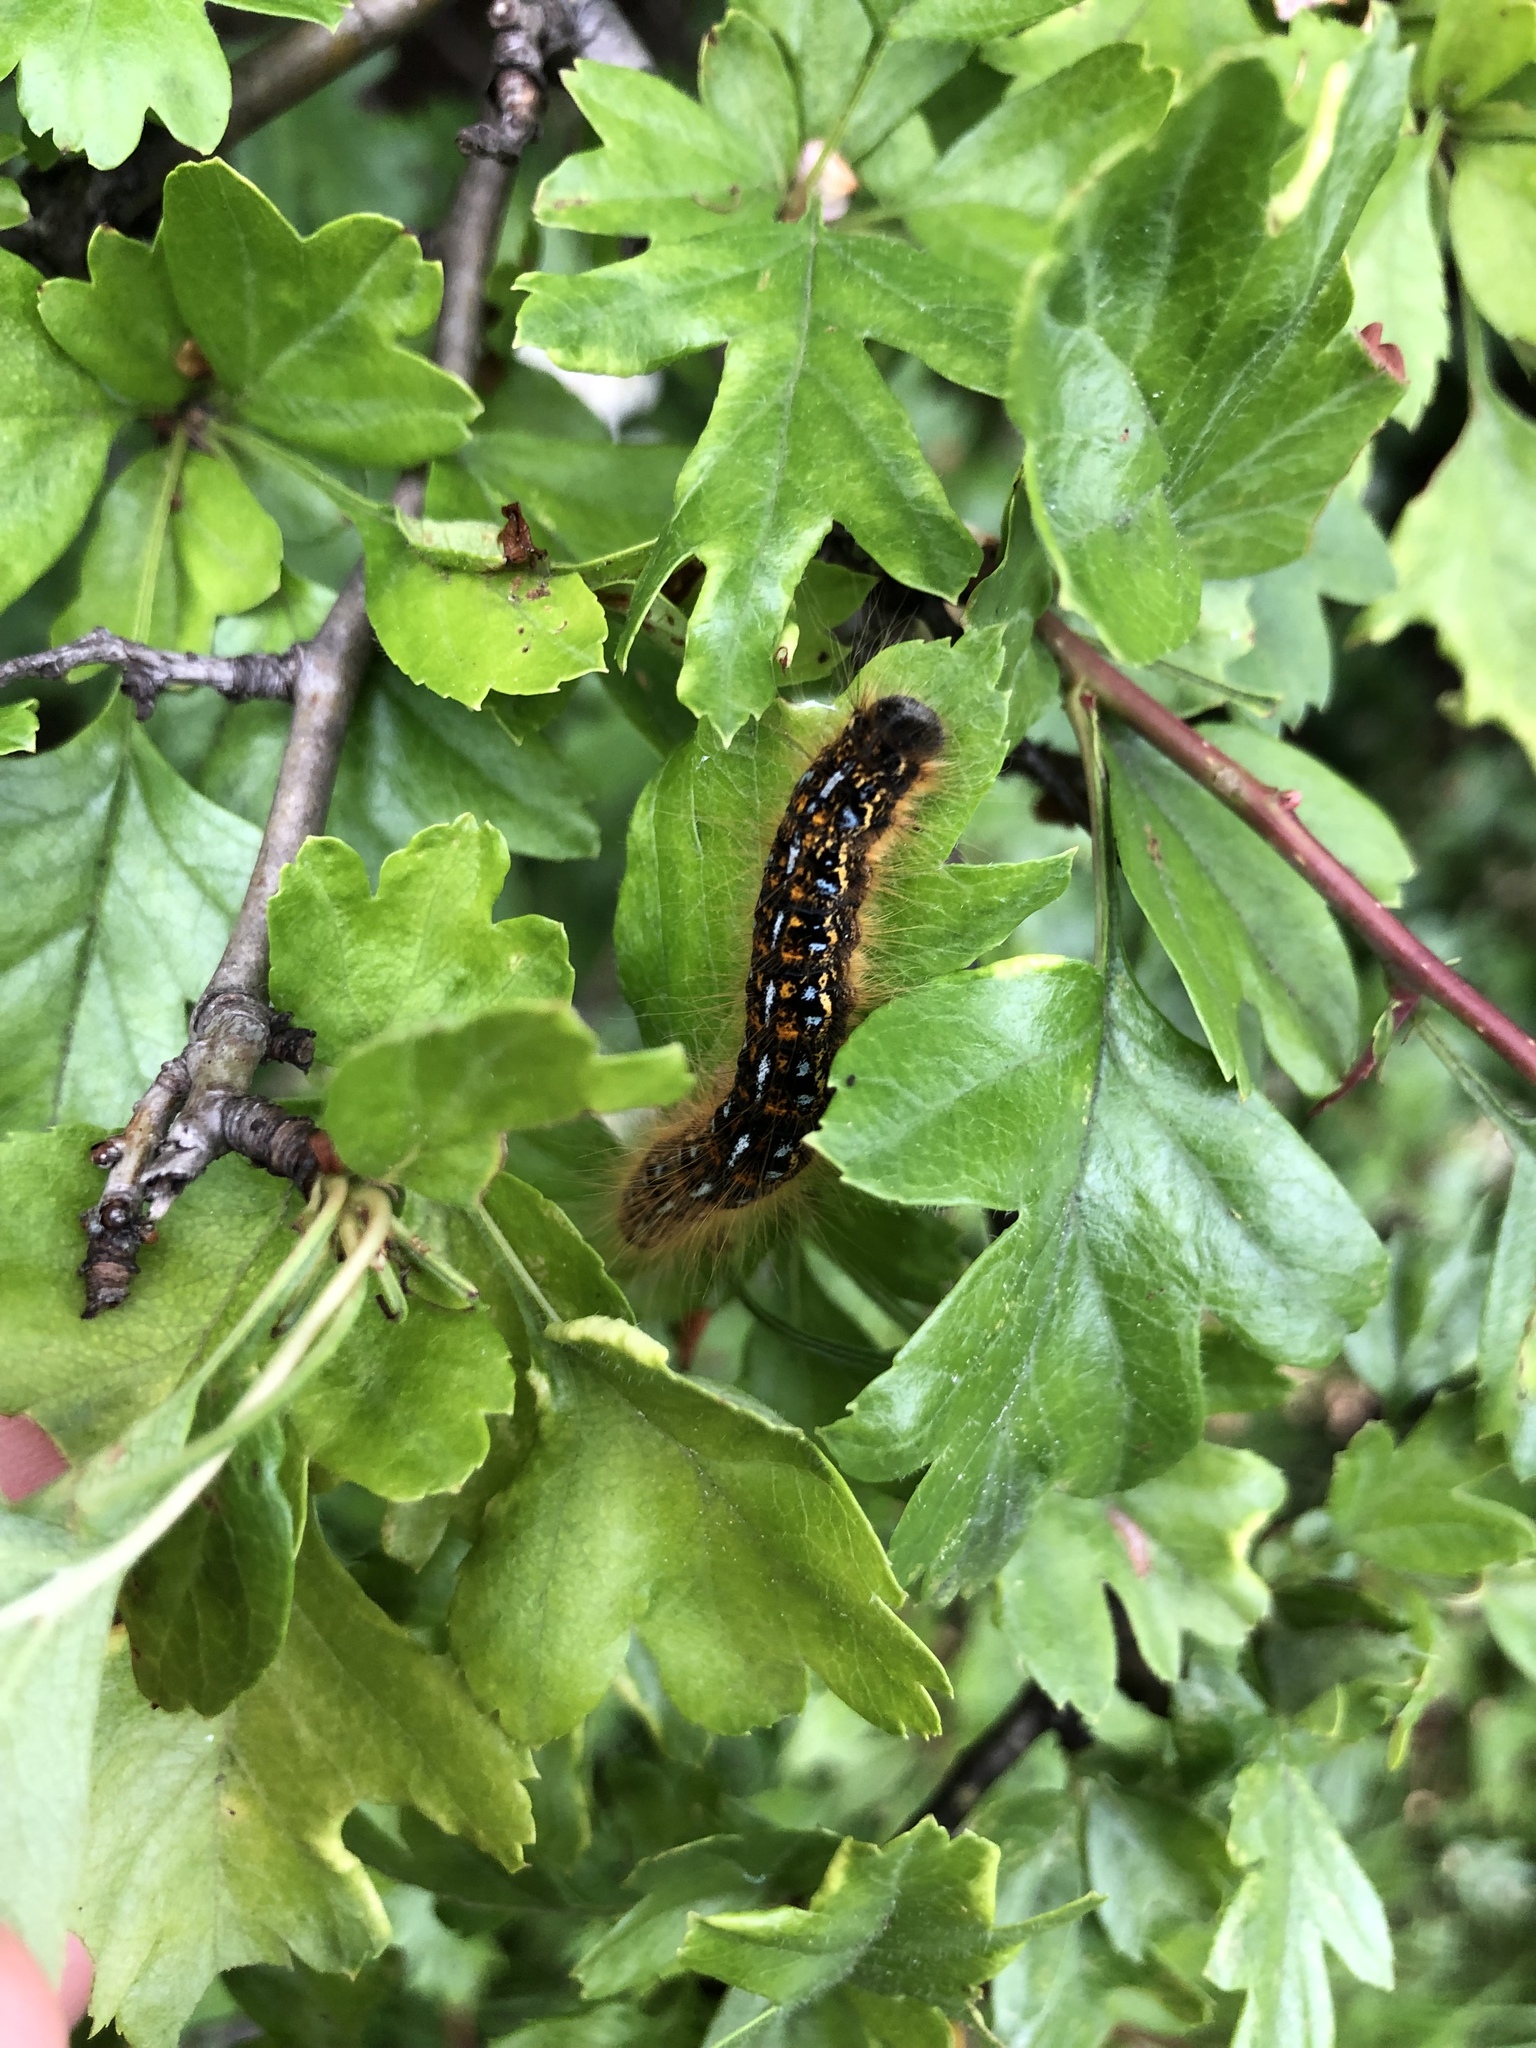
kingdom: Animalia
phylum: Arthropoda
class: Insecta
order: Lepidoptera
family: Lasiocampidae
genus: Malacosoma
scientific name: Malacosoma californica
